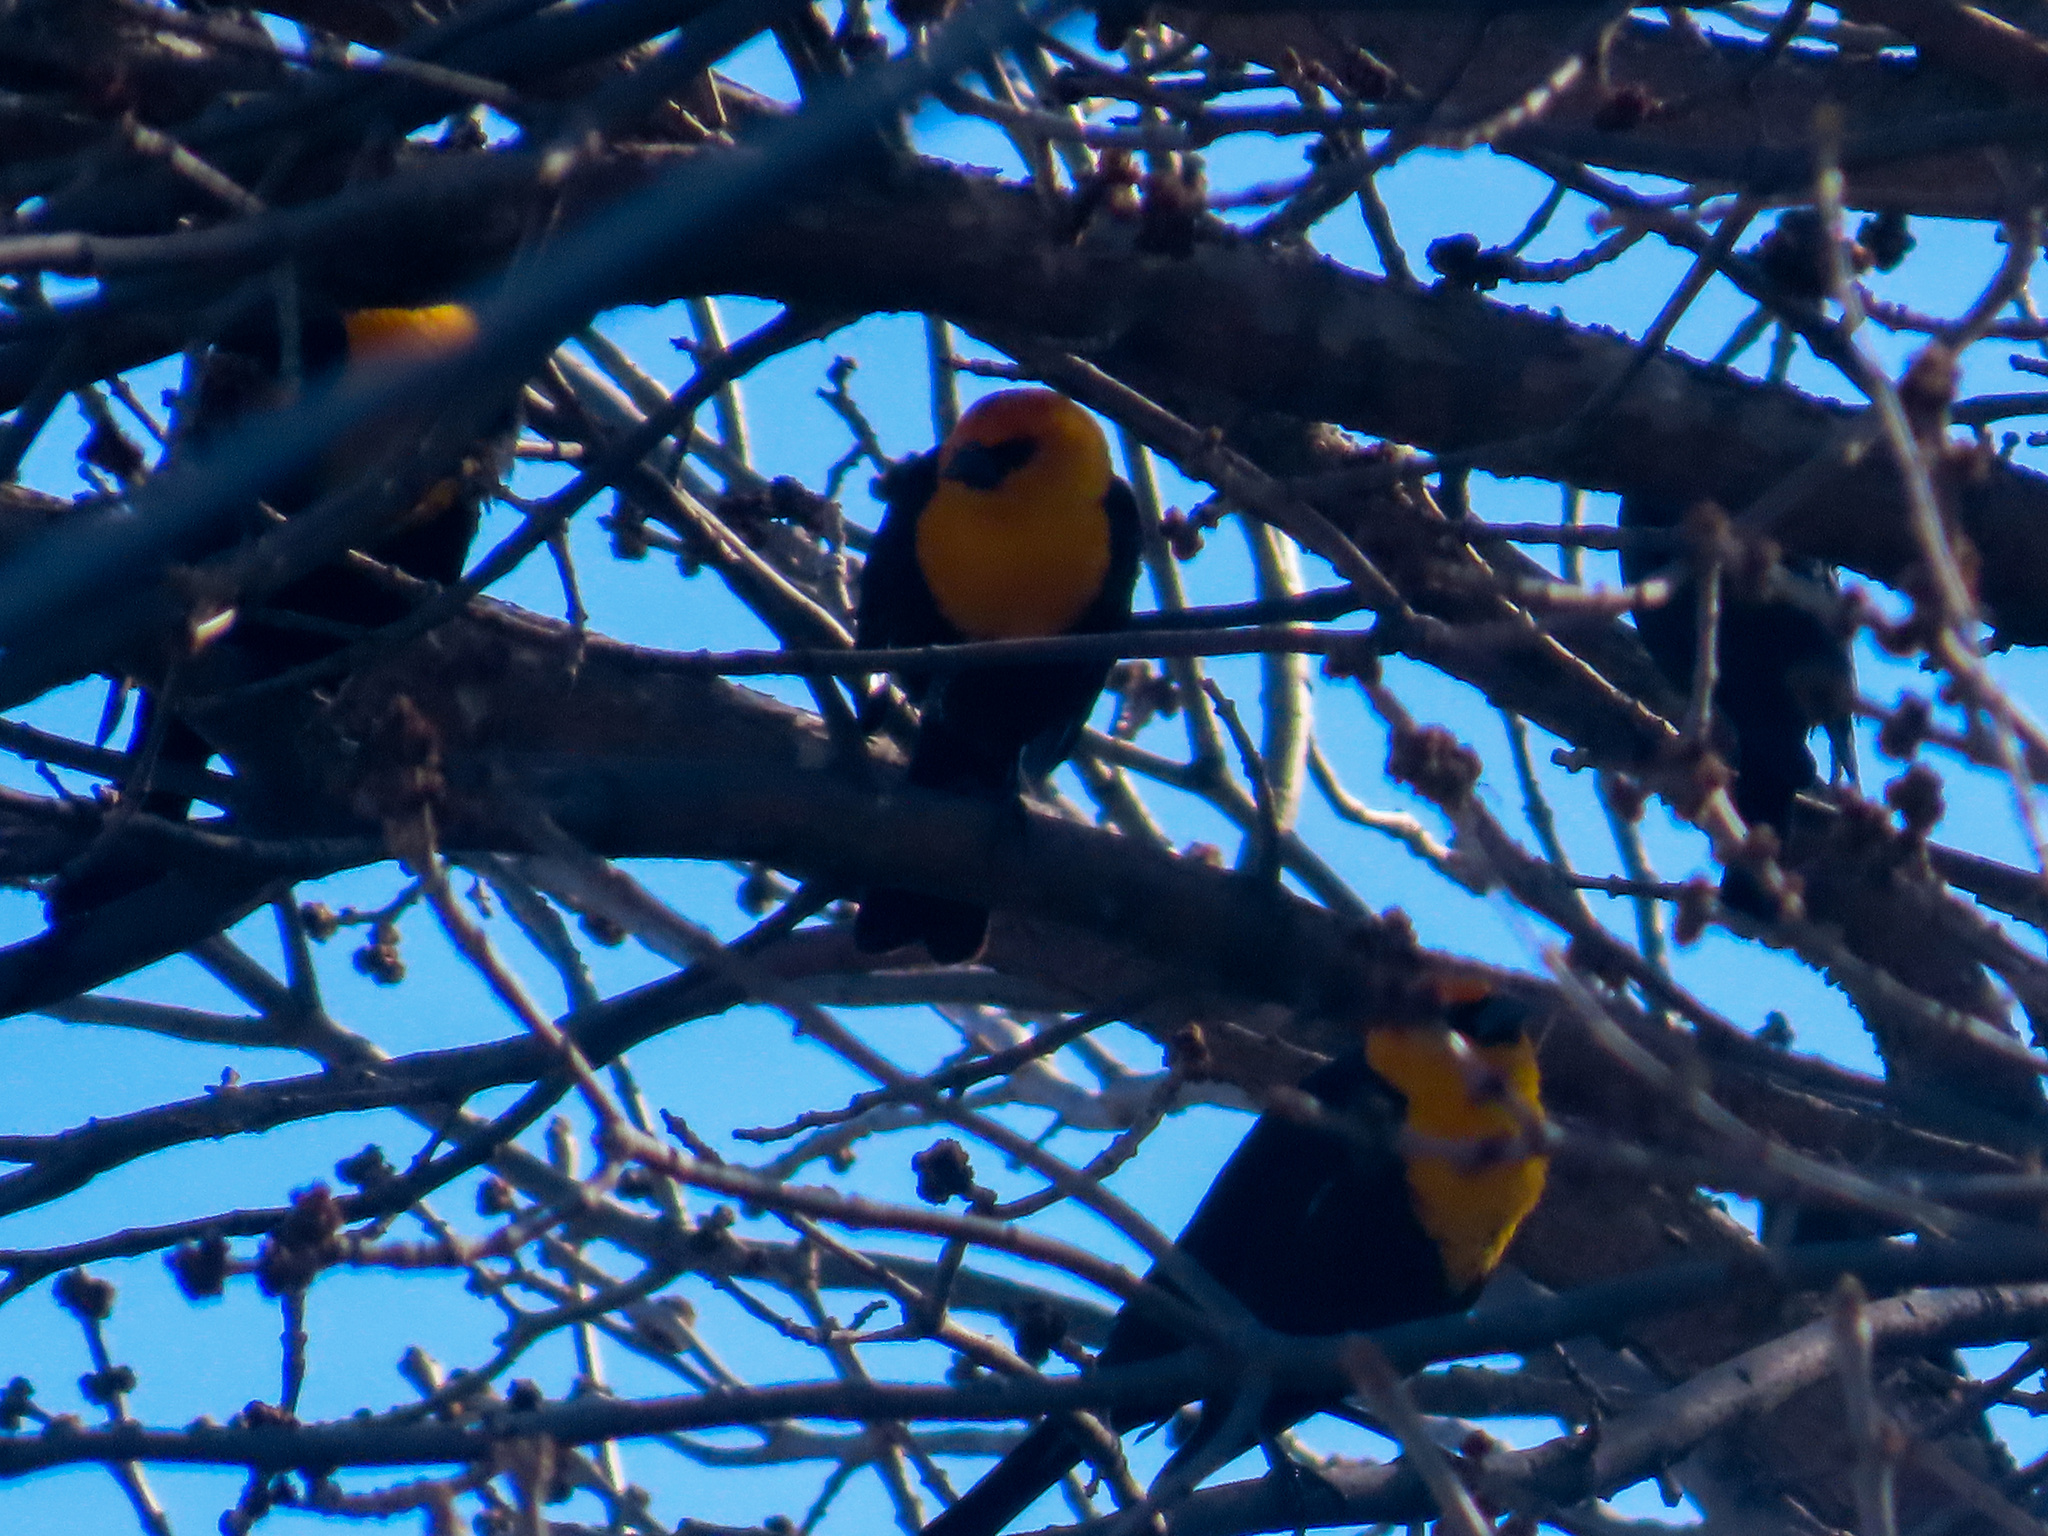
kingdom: Animalia
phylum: Chordata
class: Aves
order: Passeriformes
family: Icteridae
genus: Xanthocephalus
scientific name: Xanthocephalus xanthocephalus
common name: Yellow-headed blackbird
